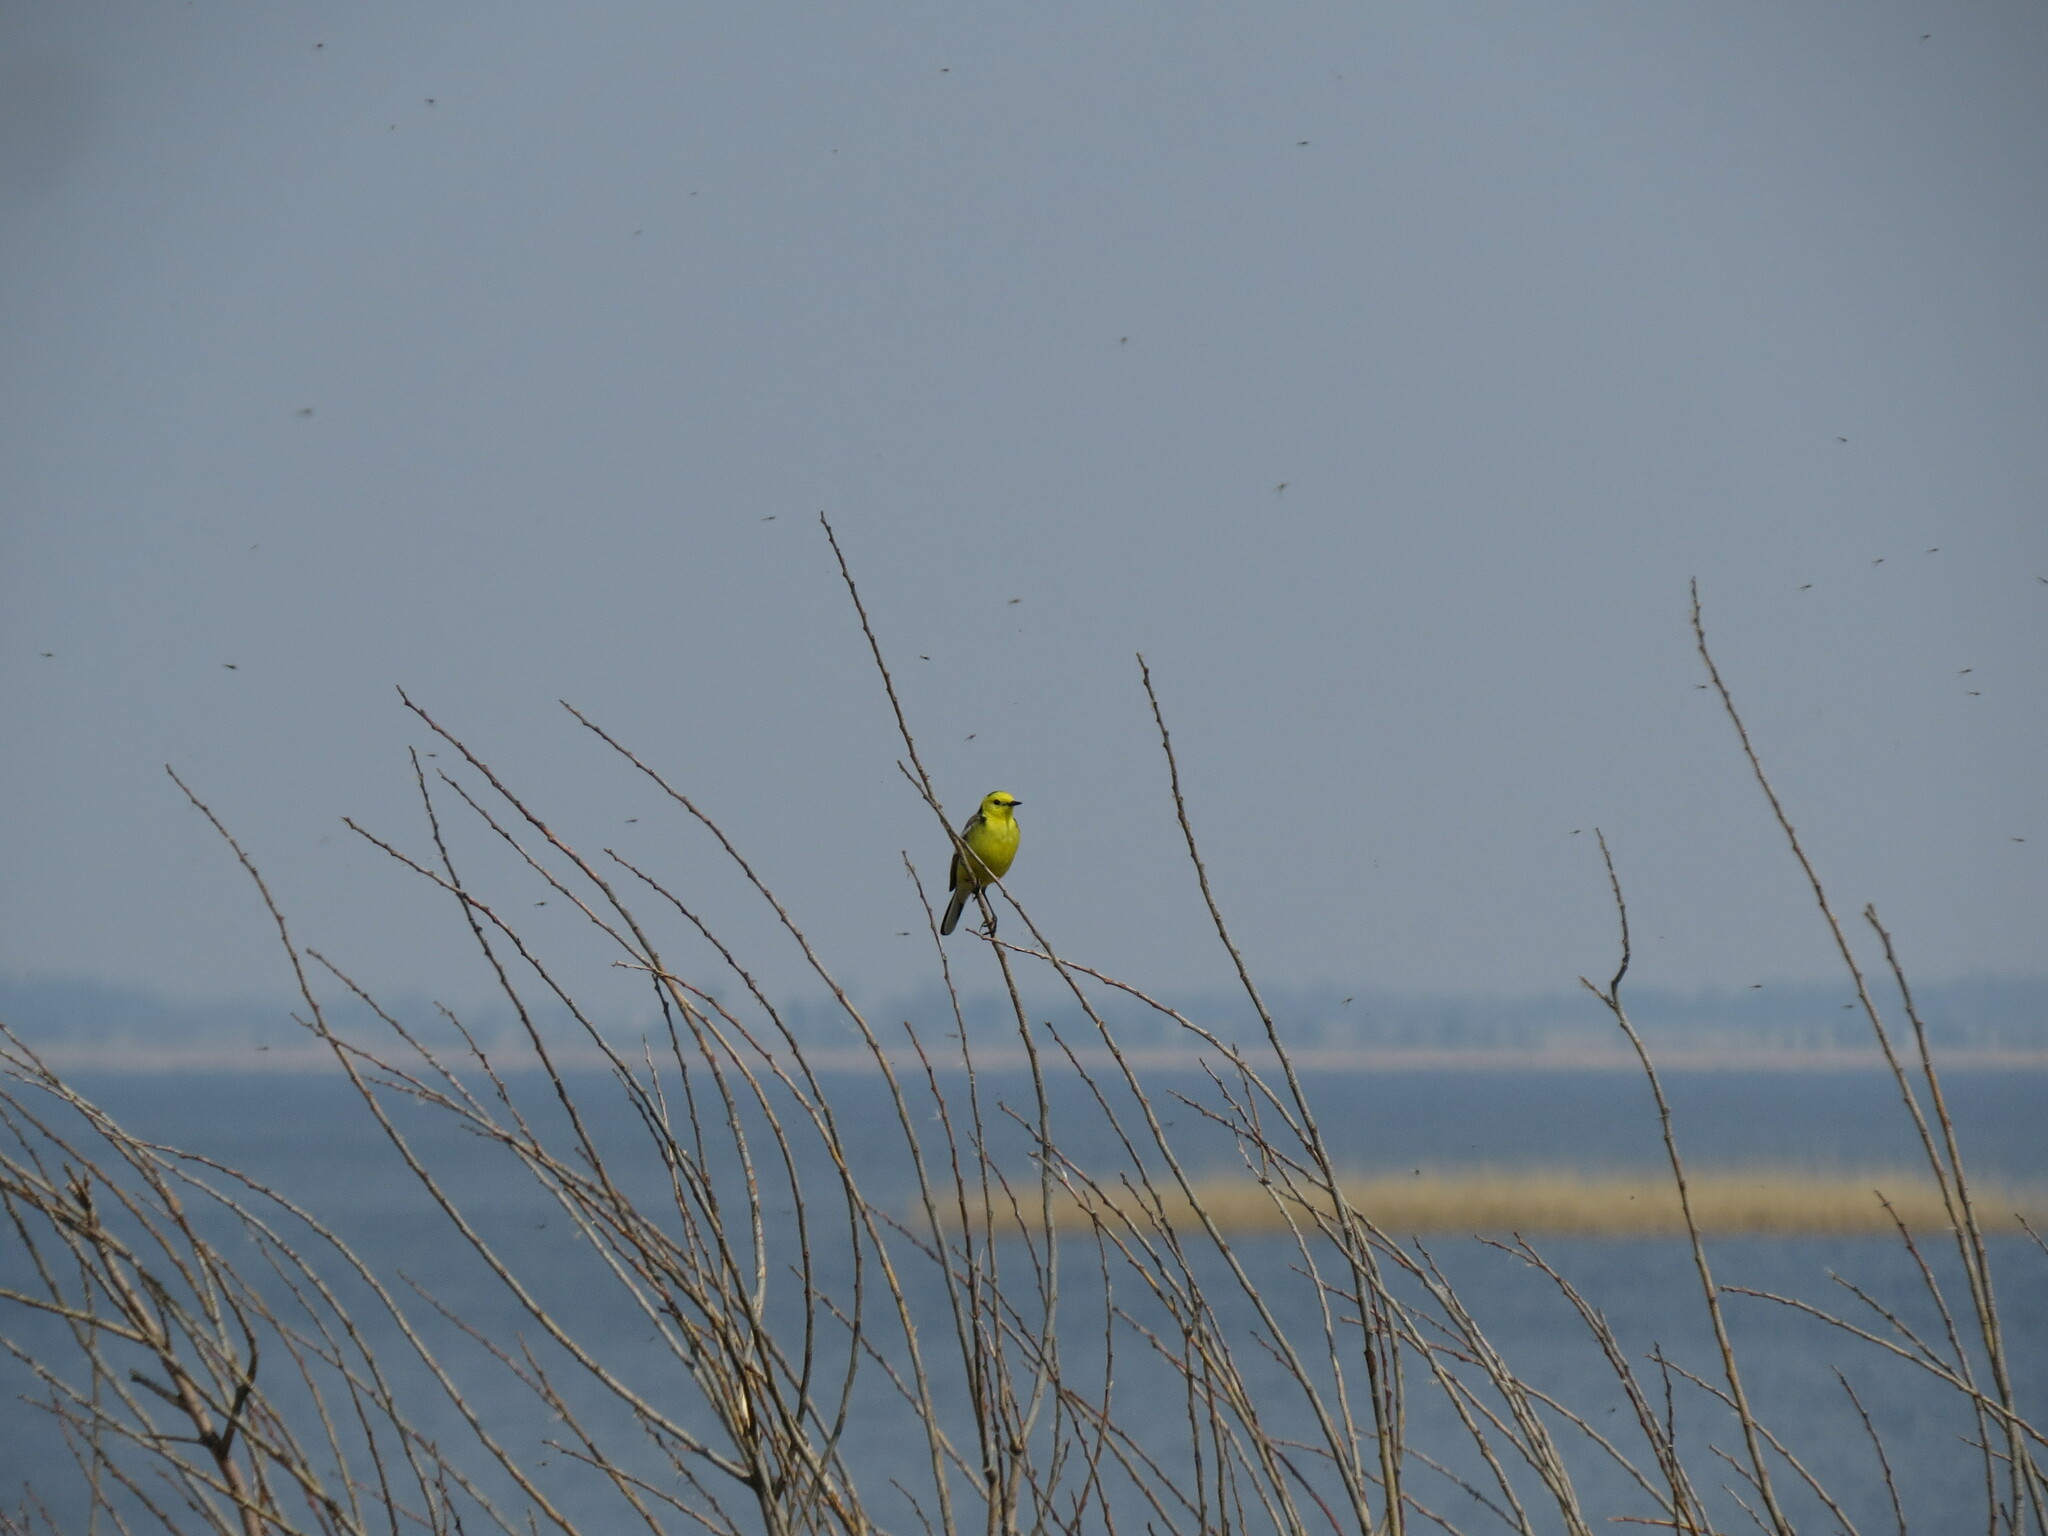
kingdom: Animalia
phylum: Chordata
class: Aves
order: Passeriformes
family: Motacillidae
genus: Motacilla
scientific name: Motacilla citreola
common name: Citrine wagtail
